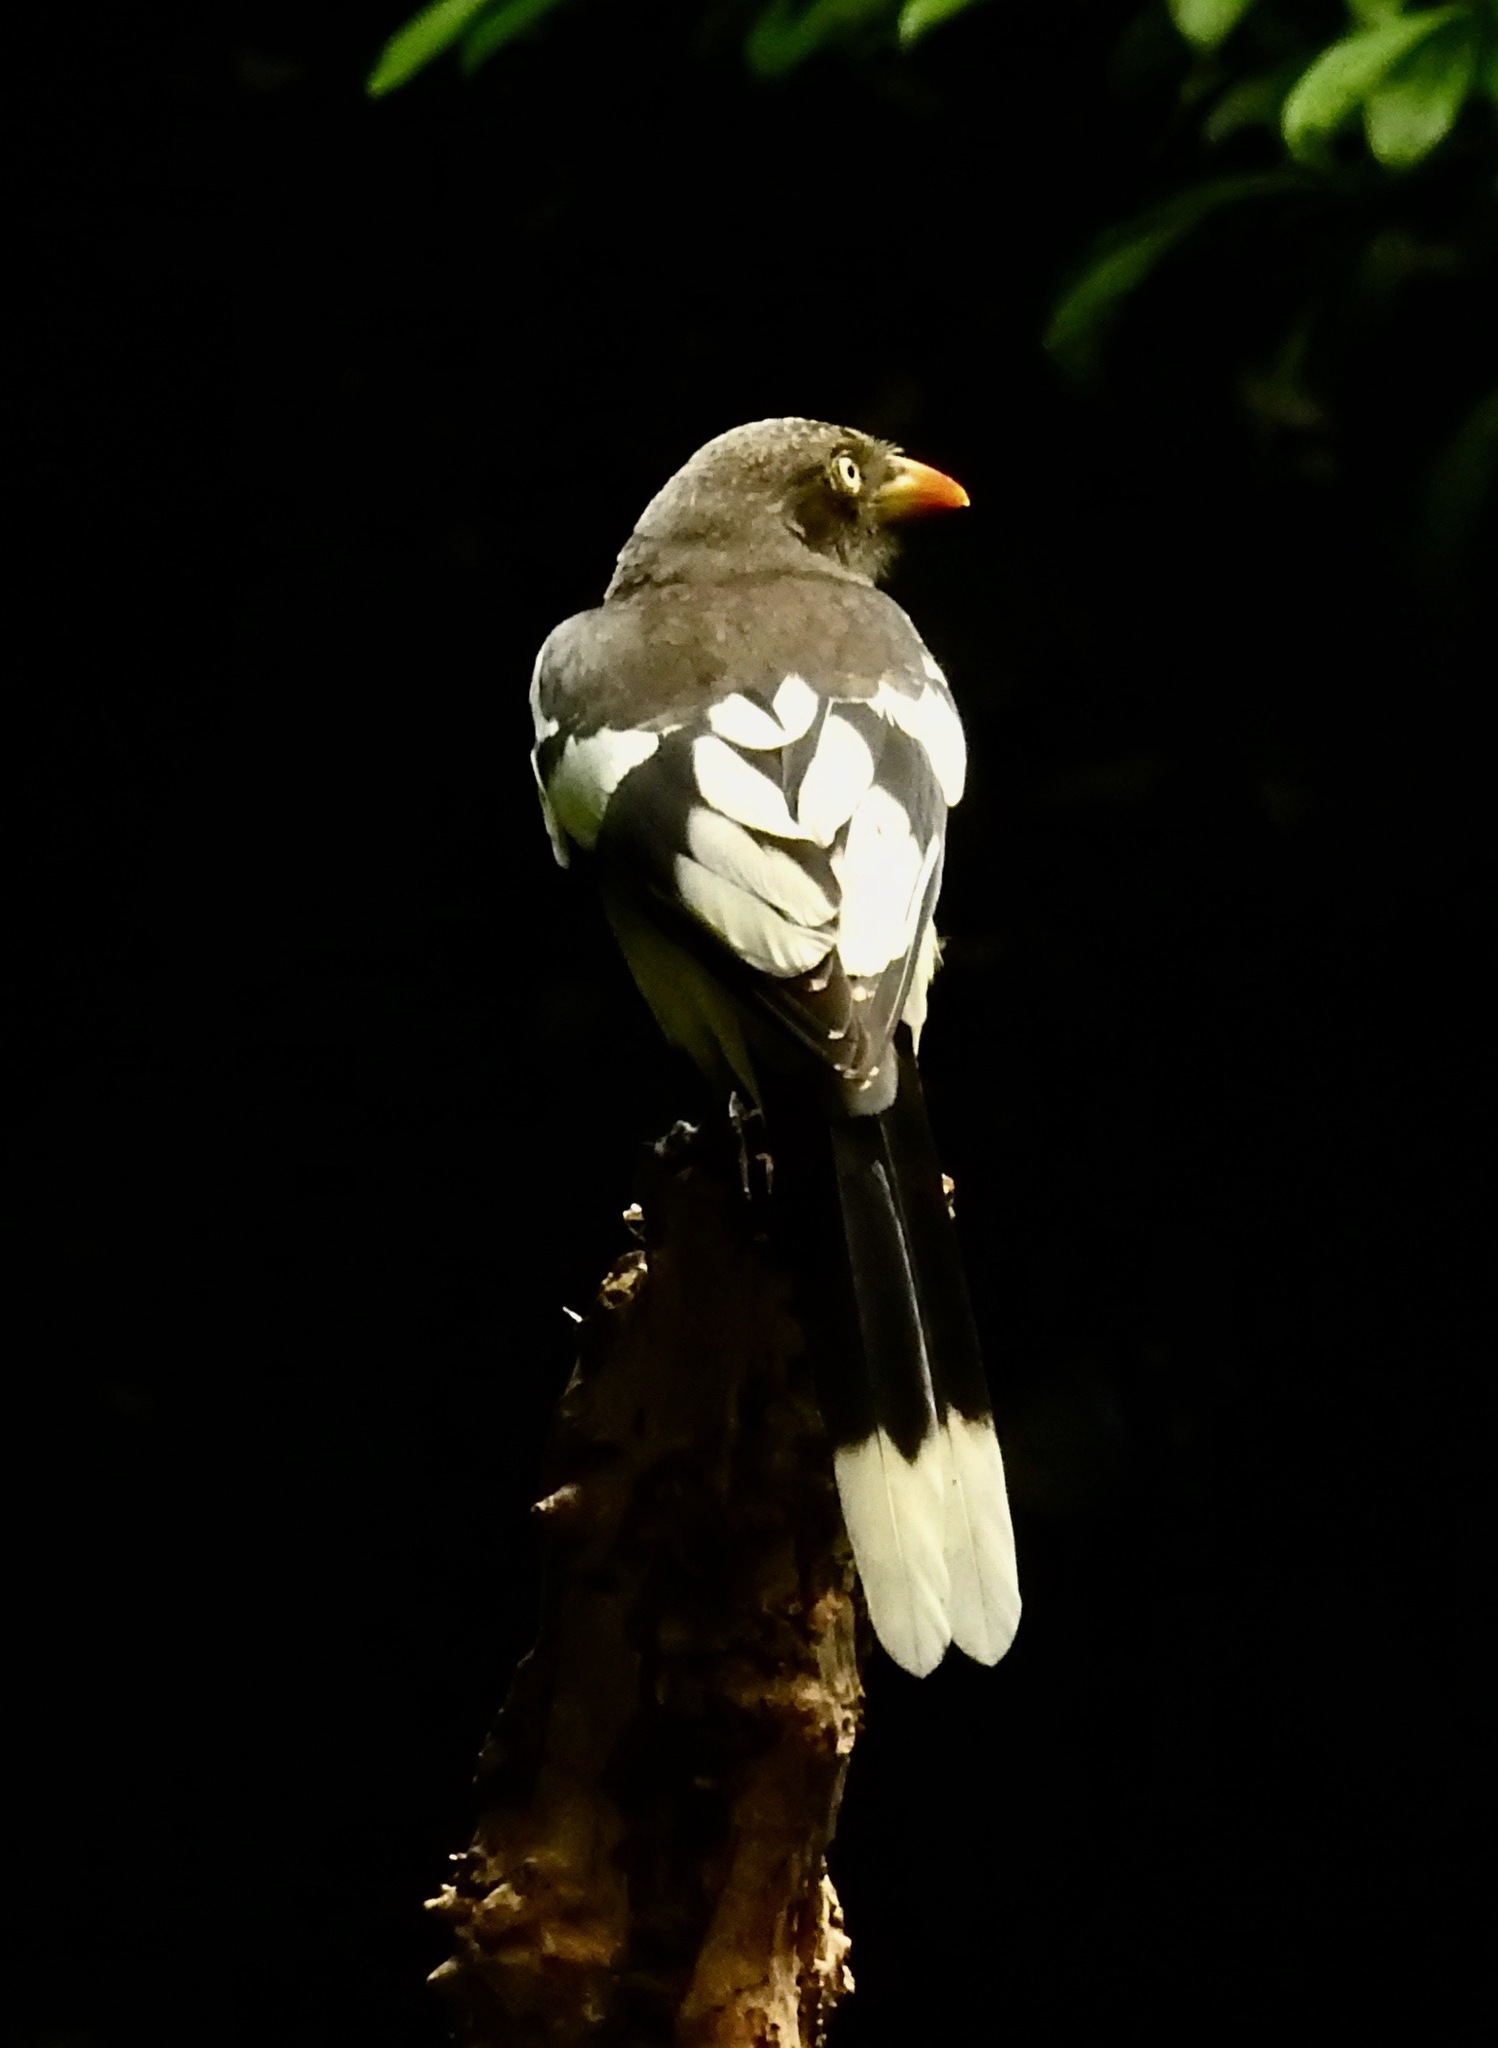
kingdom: Animalia
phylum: Chordata
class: Aves
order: Passeriformes
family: Corvidae
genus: Urocissa
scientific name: Urocissa whiteheadi
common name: White-winged magpie
